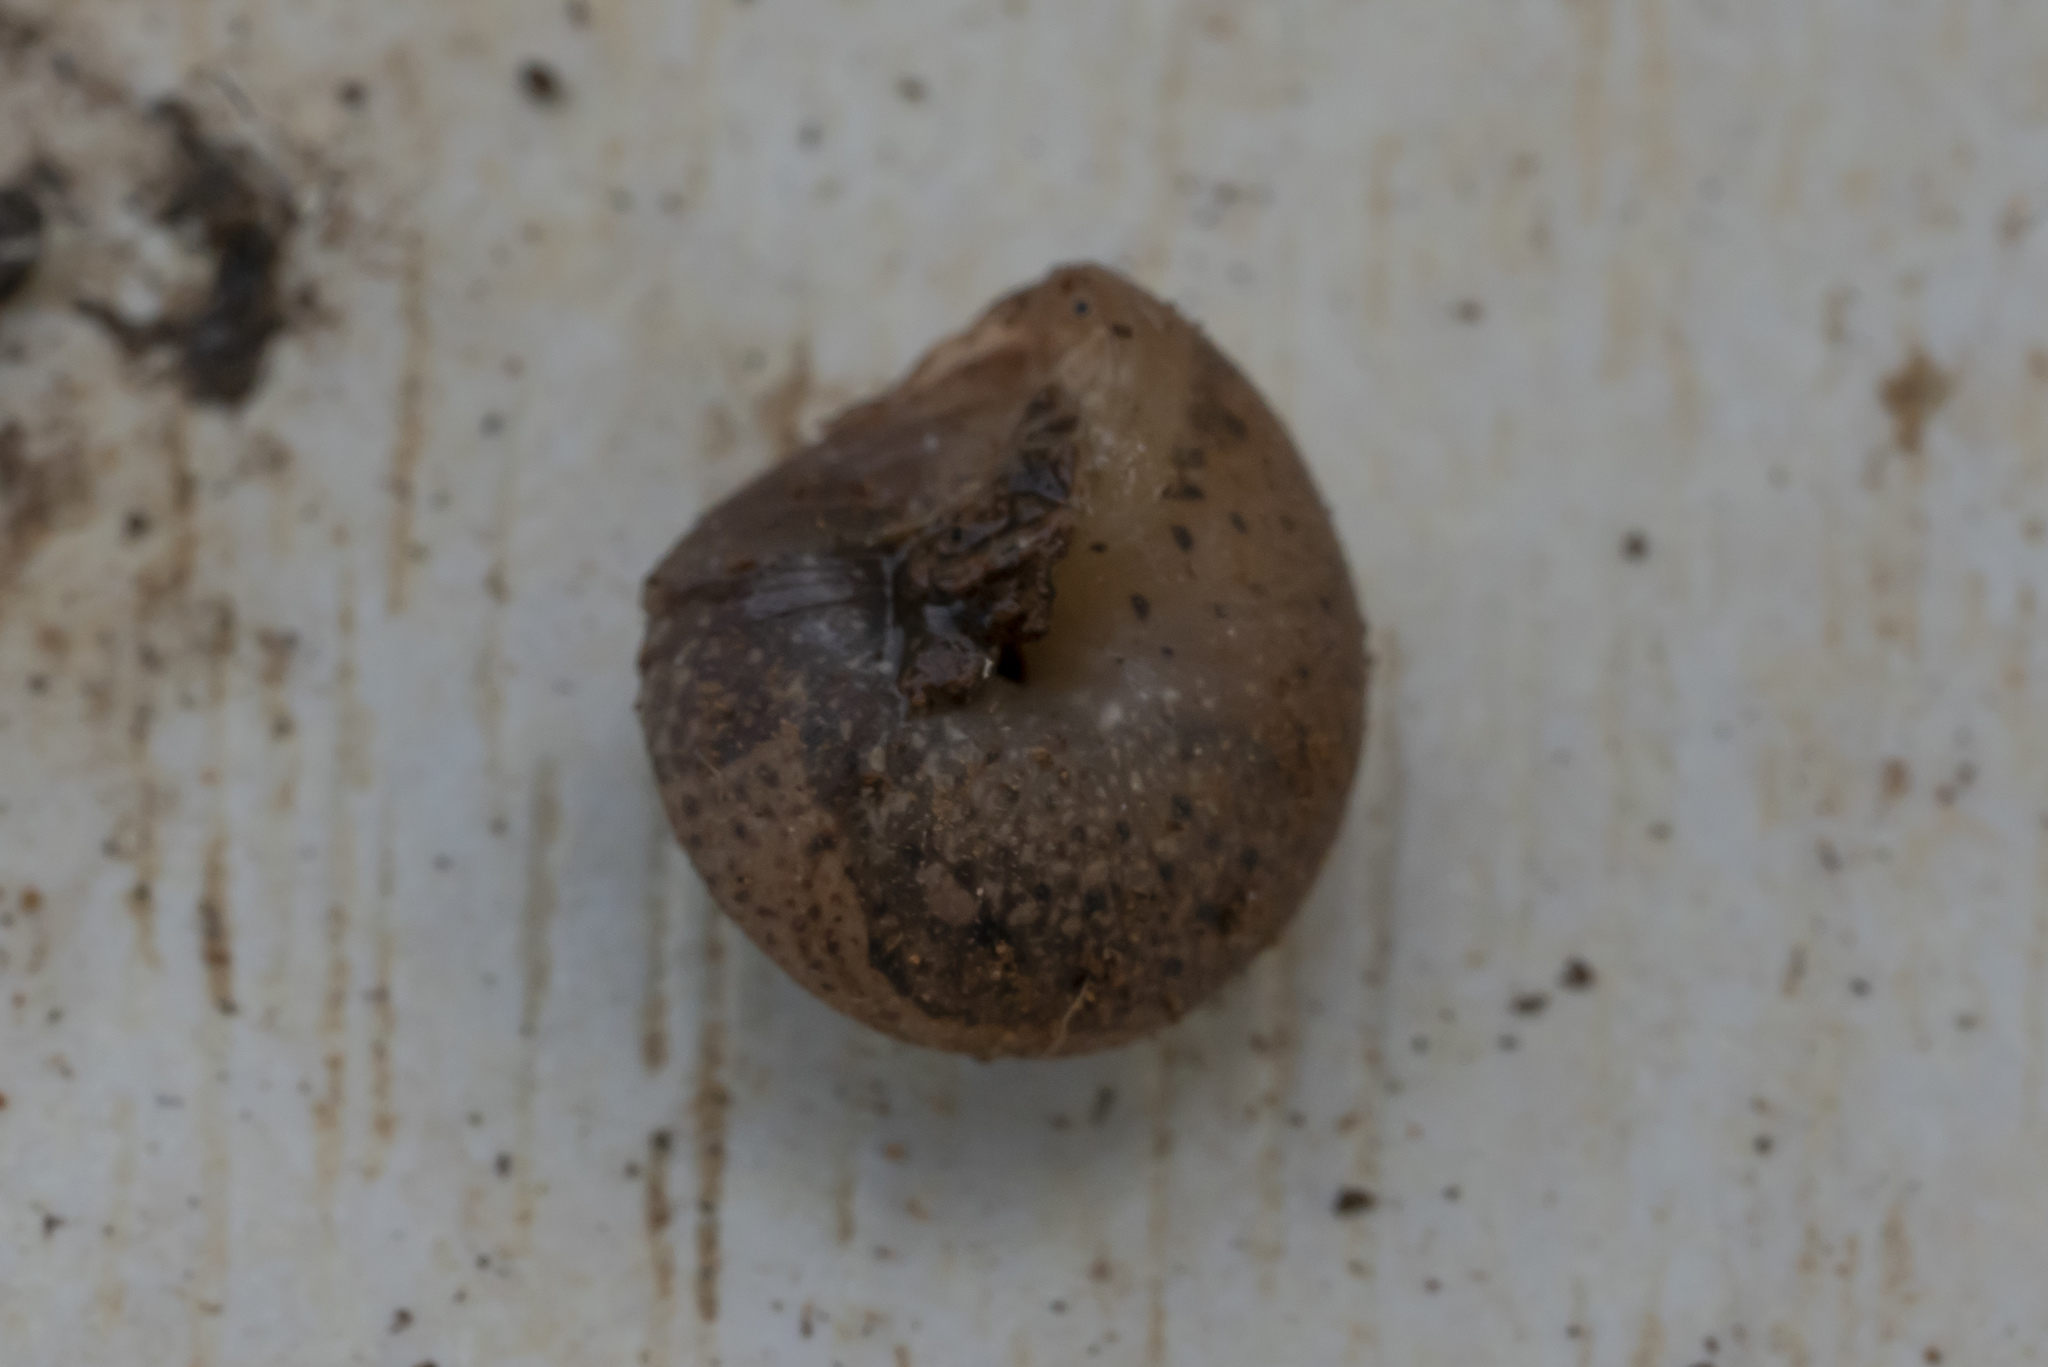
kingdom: Animalia
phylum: Mollusca
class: Gastropoda
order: Stylommatophora
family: Hygromiidae
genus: Metafruticicola
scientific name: Metafruticicola nicosiana
